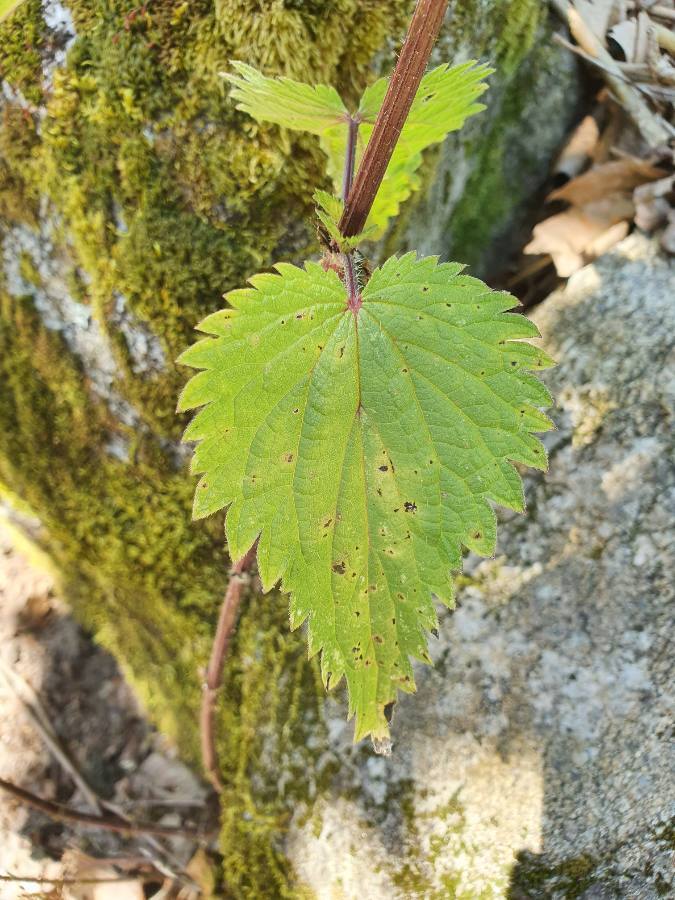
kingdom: Plantae
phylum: Tracheophyta
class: Magnoliopsida
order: Rosales
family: Urticaceae
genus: Urtica
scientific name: Urtica dioica
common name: Common nettle
